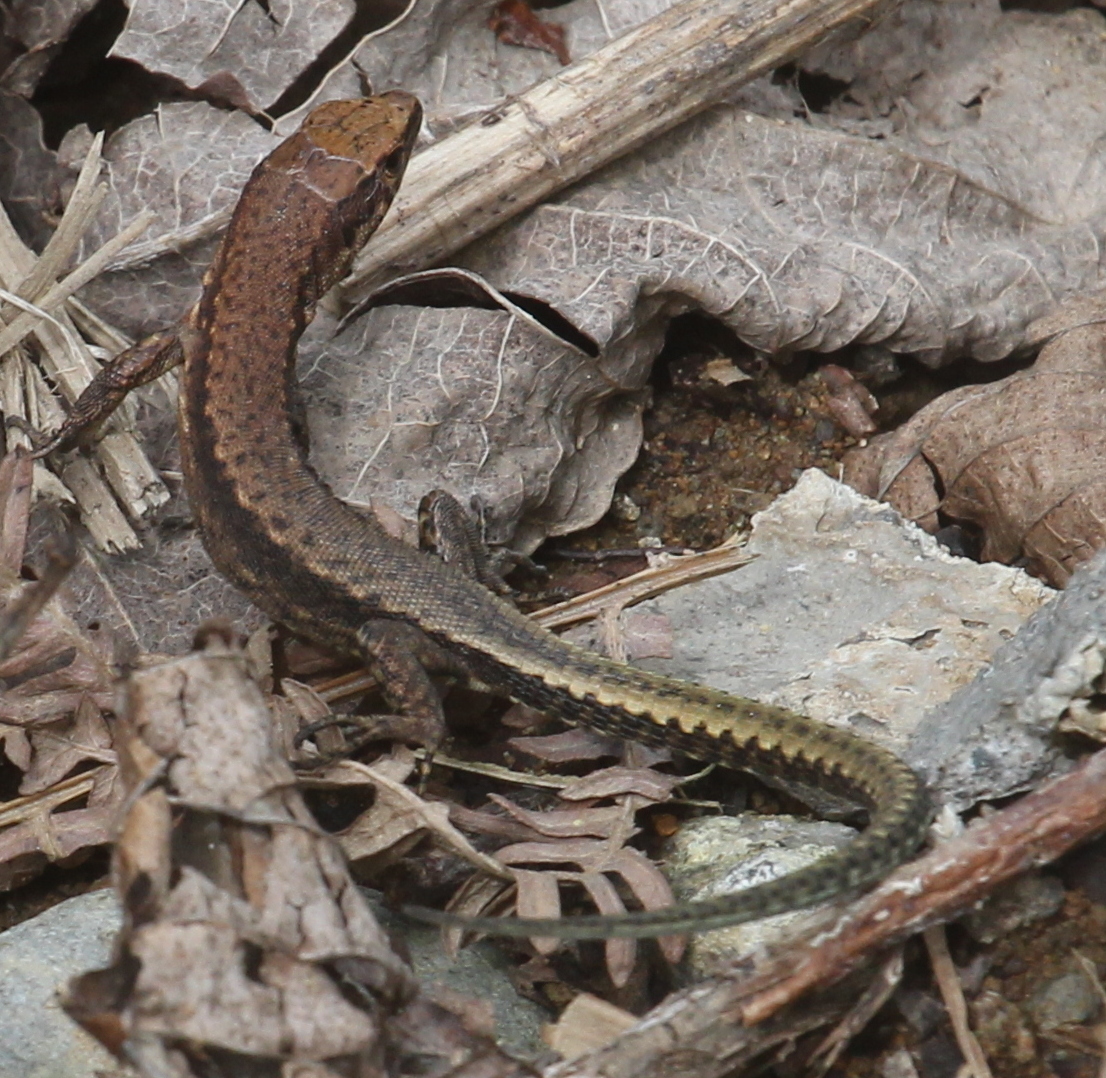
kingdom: Animalia
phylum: Chordata
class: Squamata
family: Lacertidae
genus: Darevskia
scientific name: Darevskia derjugini
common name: Derjugin's lizard
